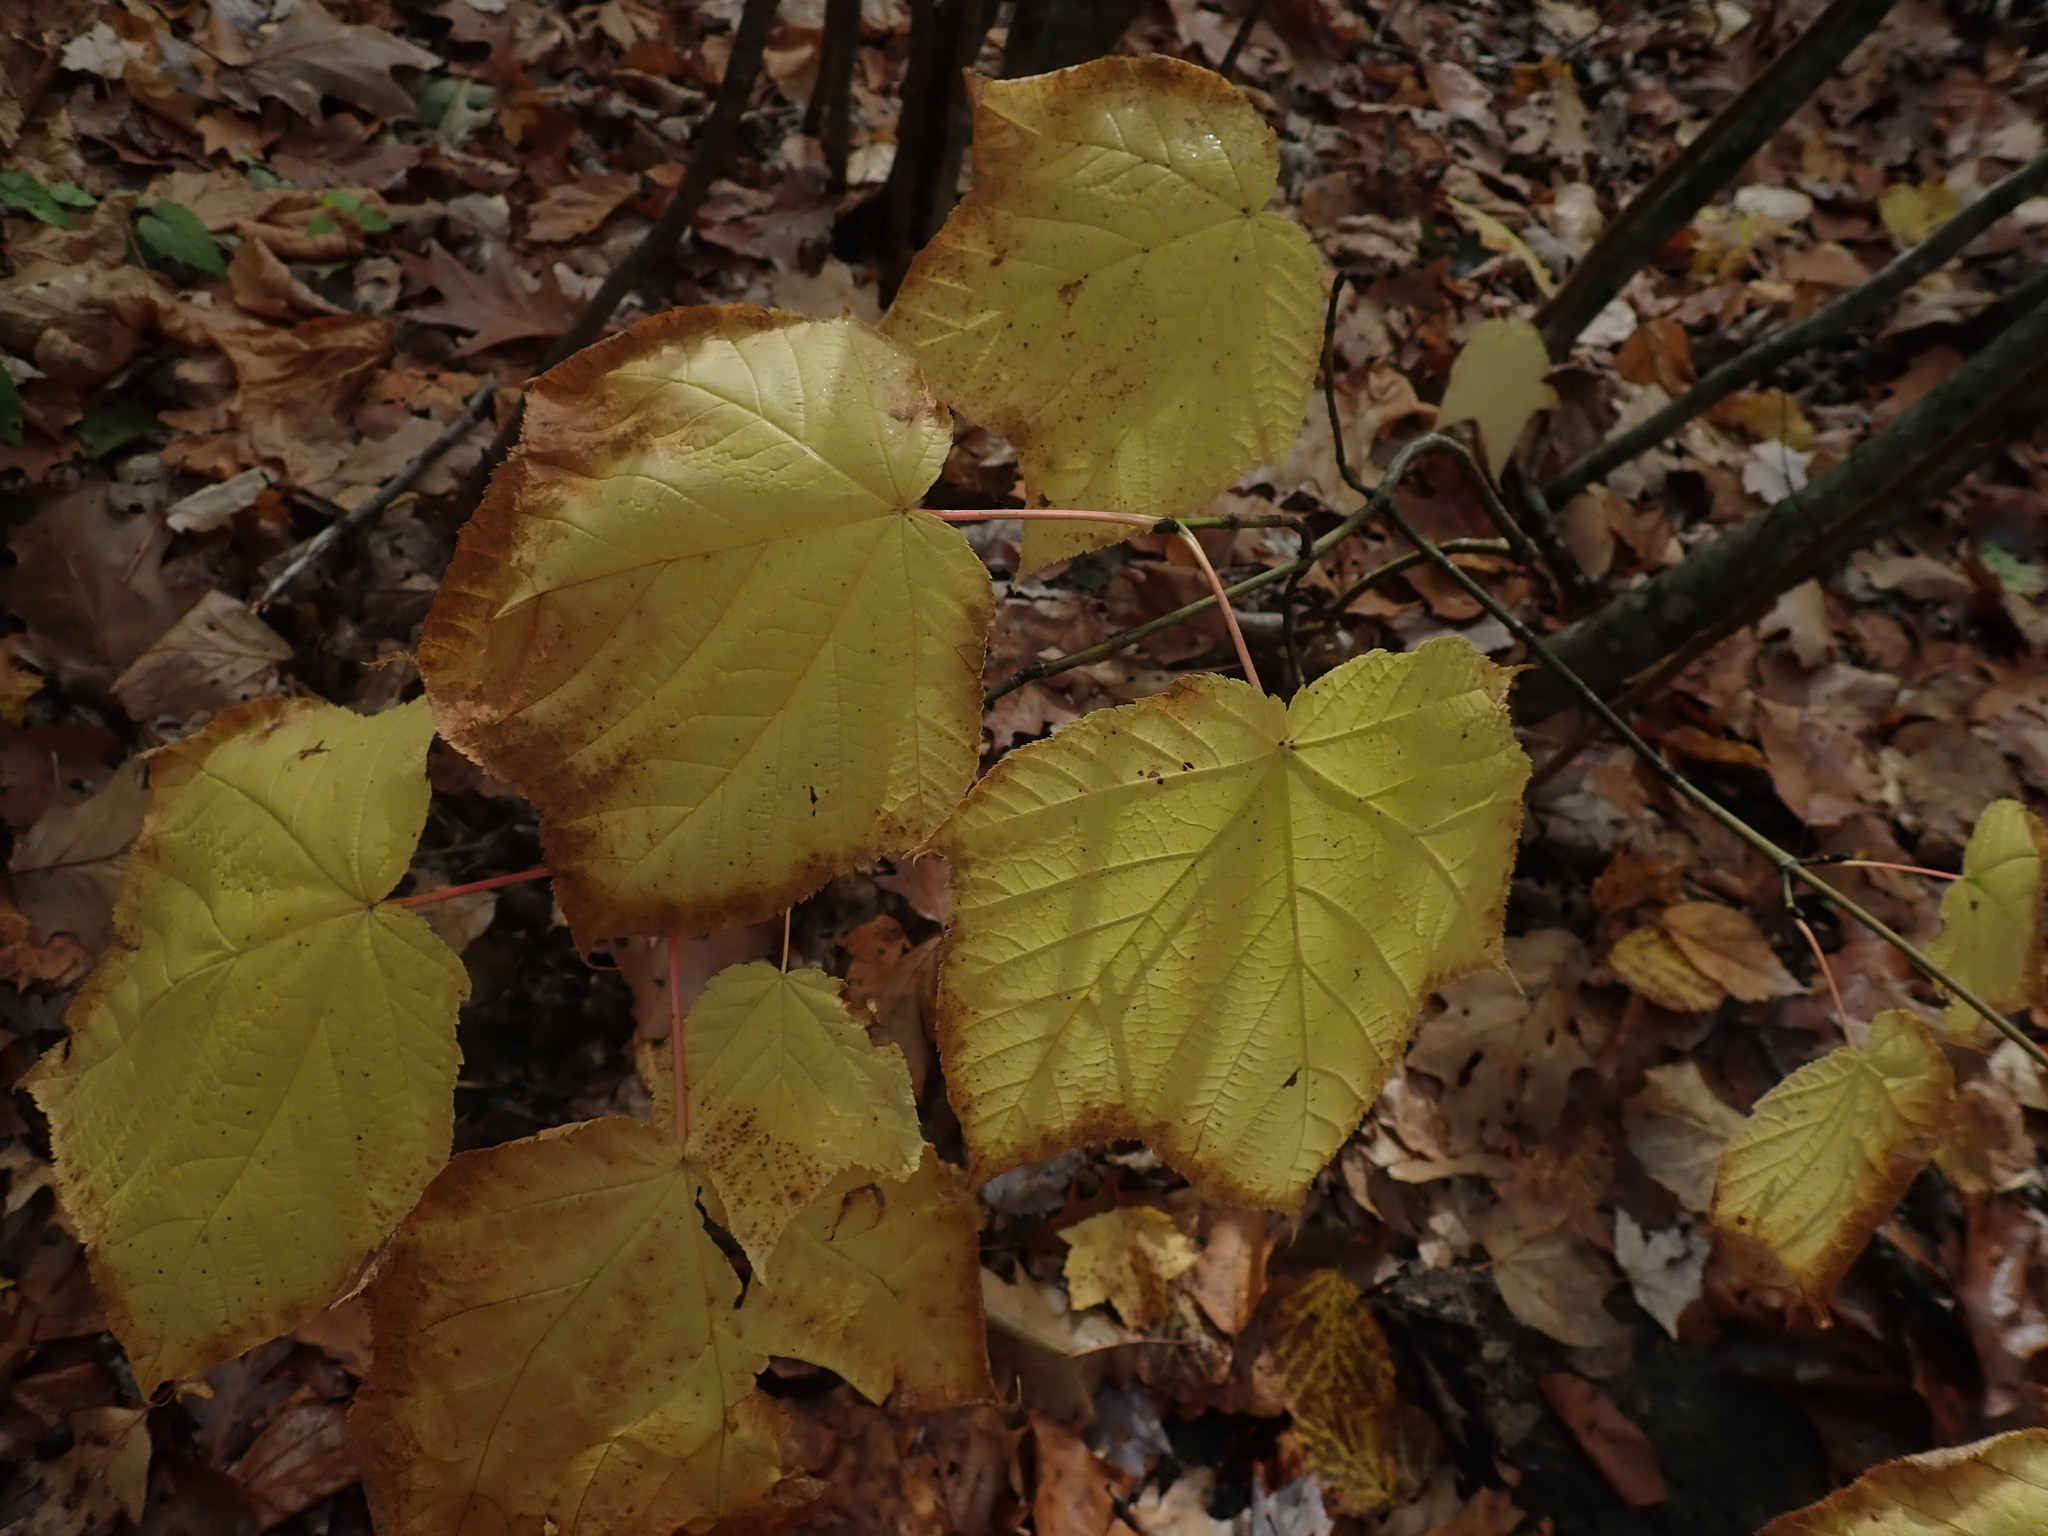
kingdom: Plantae
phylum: Tracheophyta
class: Magnoliopsida
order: Sapindales
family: Sapindaceae
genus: Acer
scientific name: Acer pensylvanicum
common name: Moosewood
